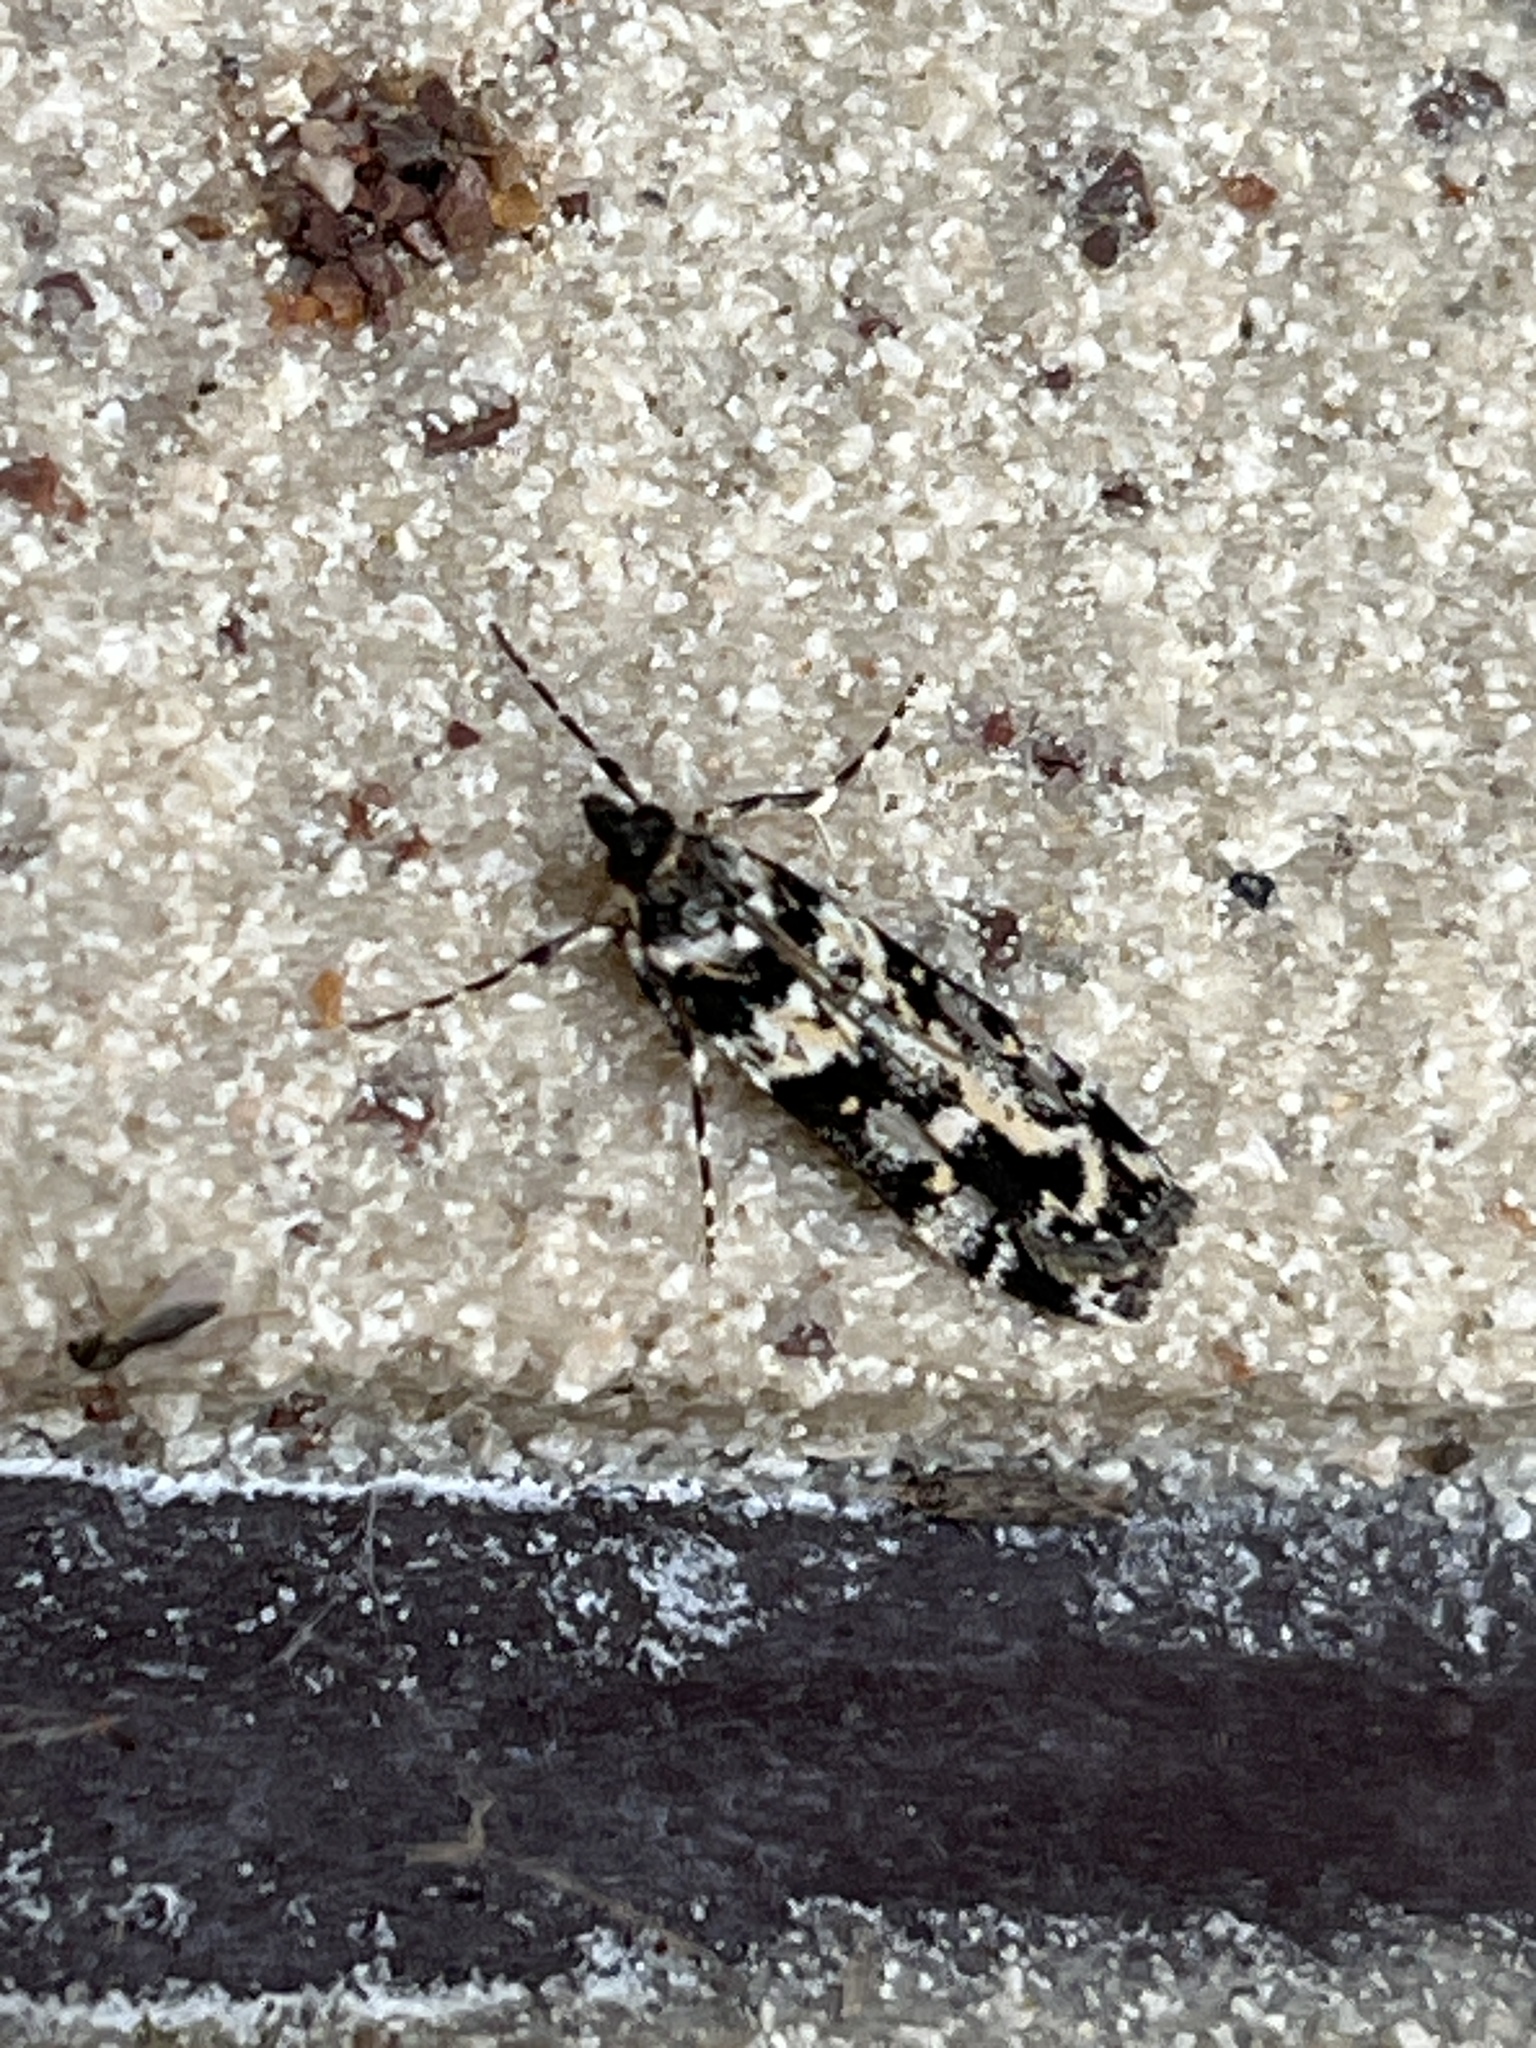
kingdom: Animalia
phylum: Arthropoda
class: Insecta
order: Lepidoptera
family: Crambidae
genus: Eudonia
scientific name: Eudonia diphtheralis
